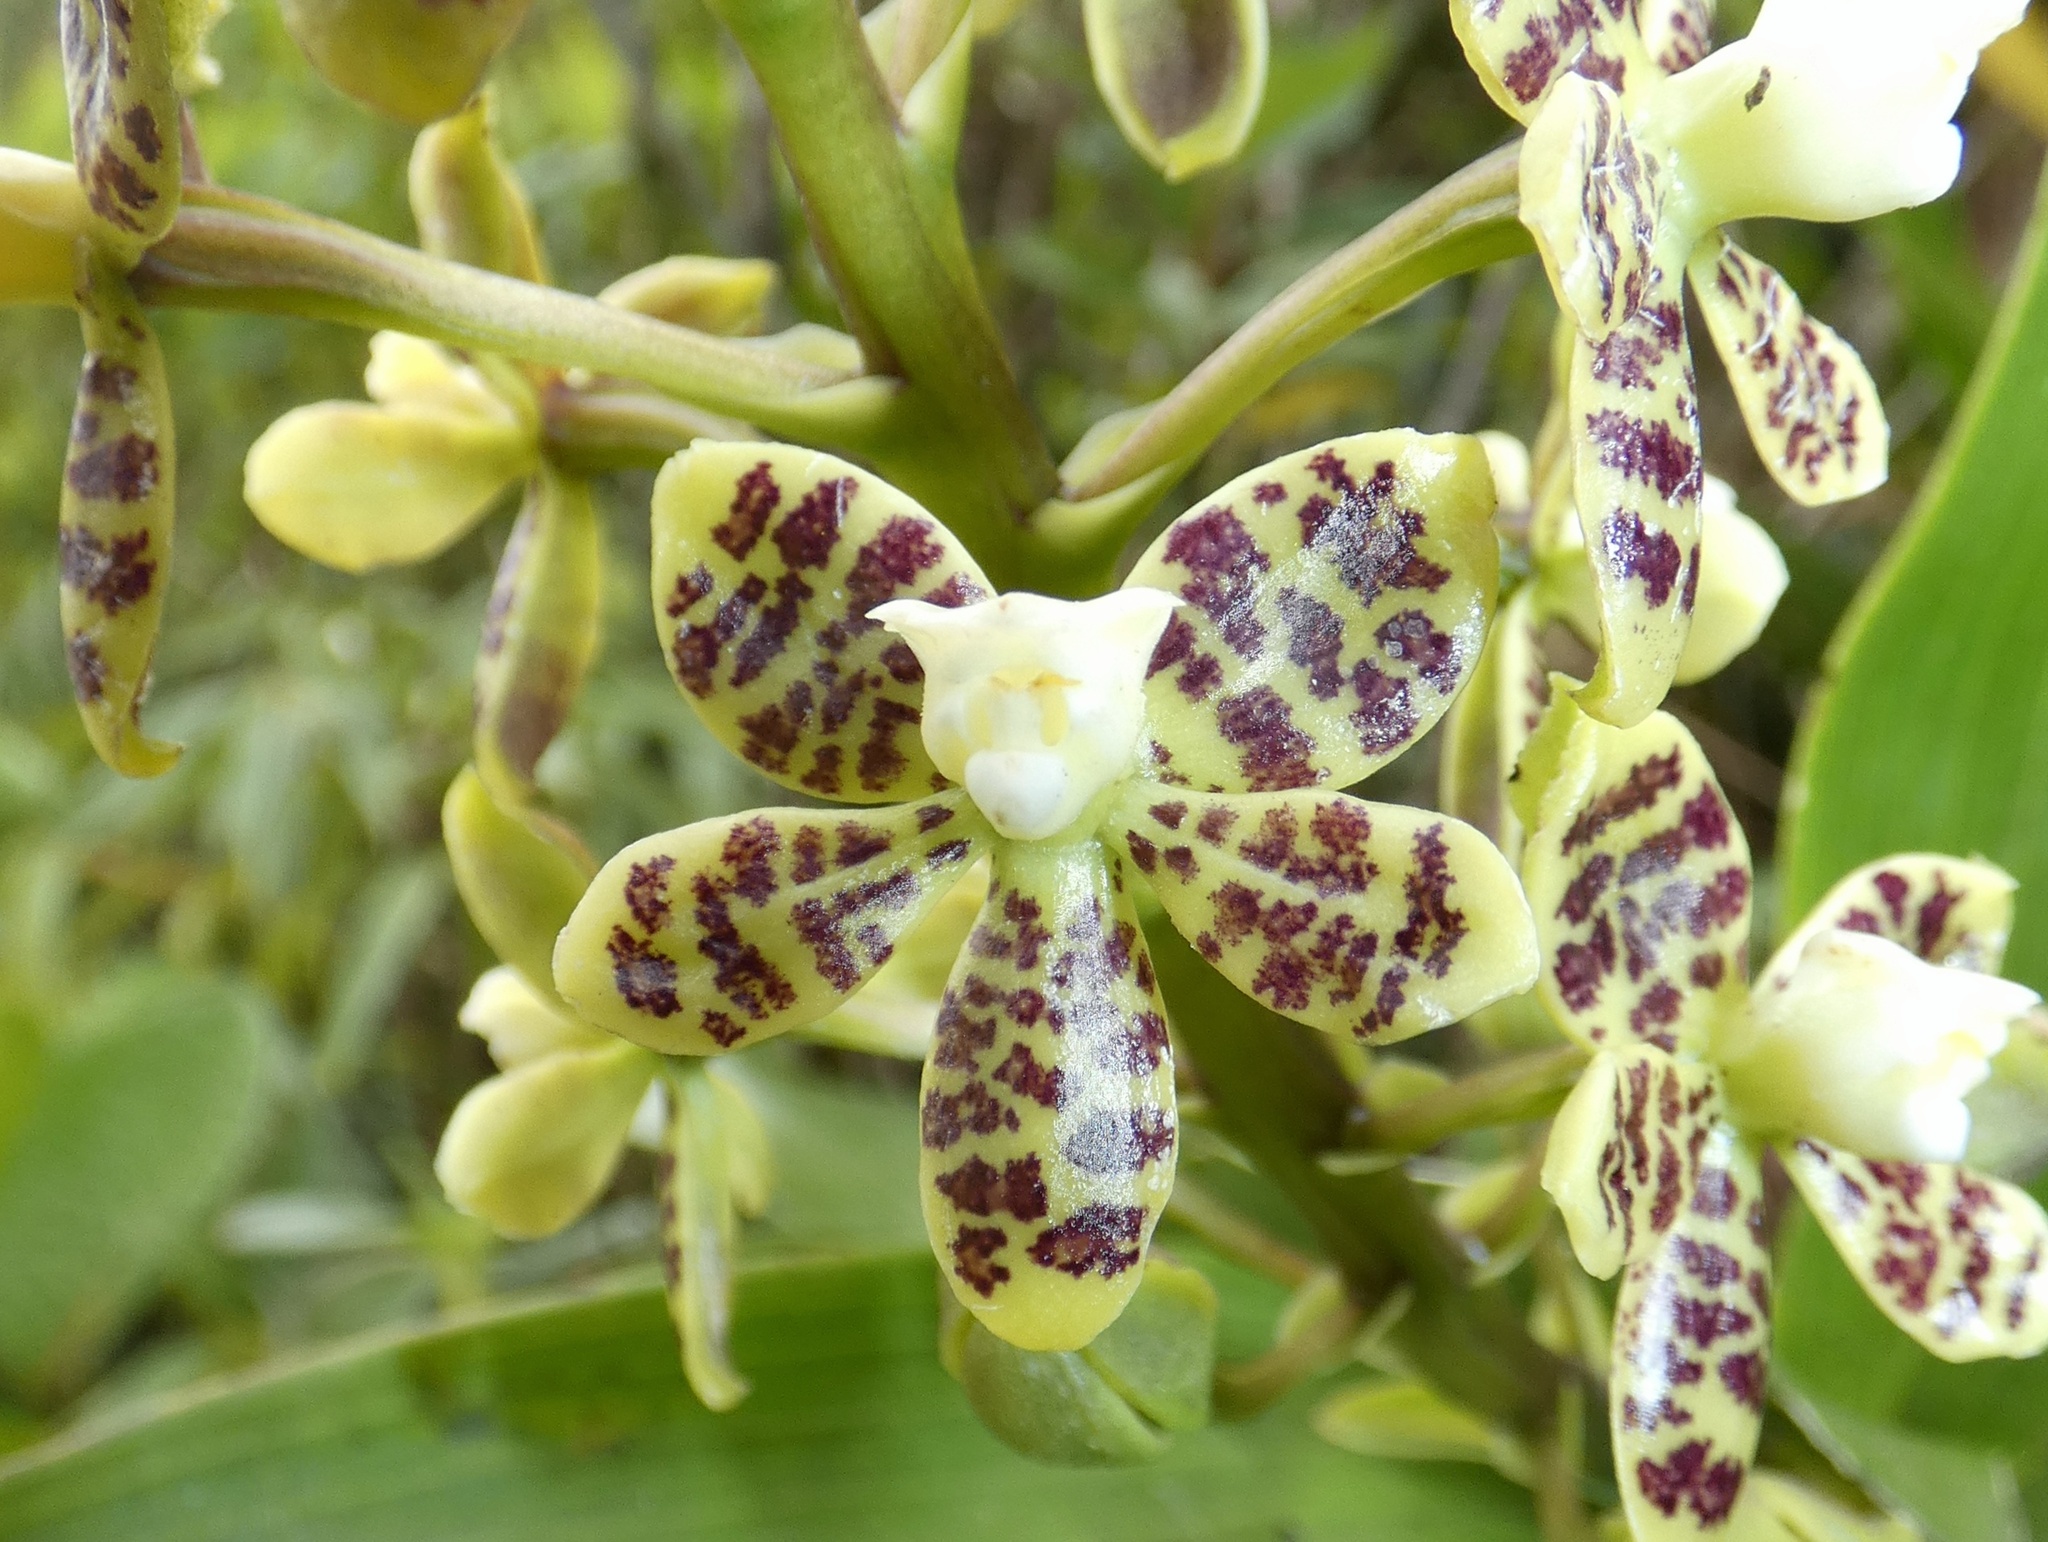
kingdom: Plantae
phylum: Tracheophyta
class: Liliopsida
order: Asparagales
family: Orchidaceae
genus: Prosthechea
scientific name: Prosthechea crassilabia
